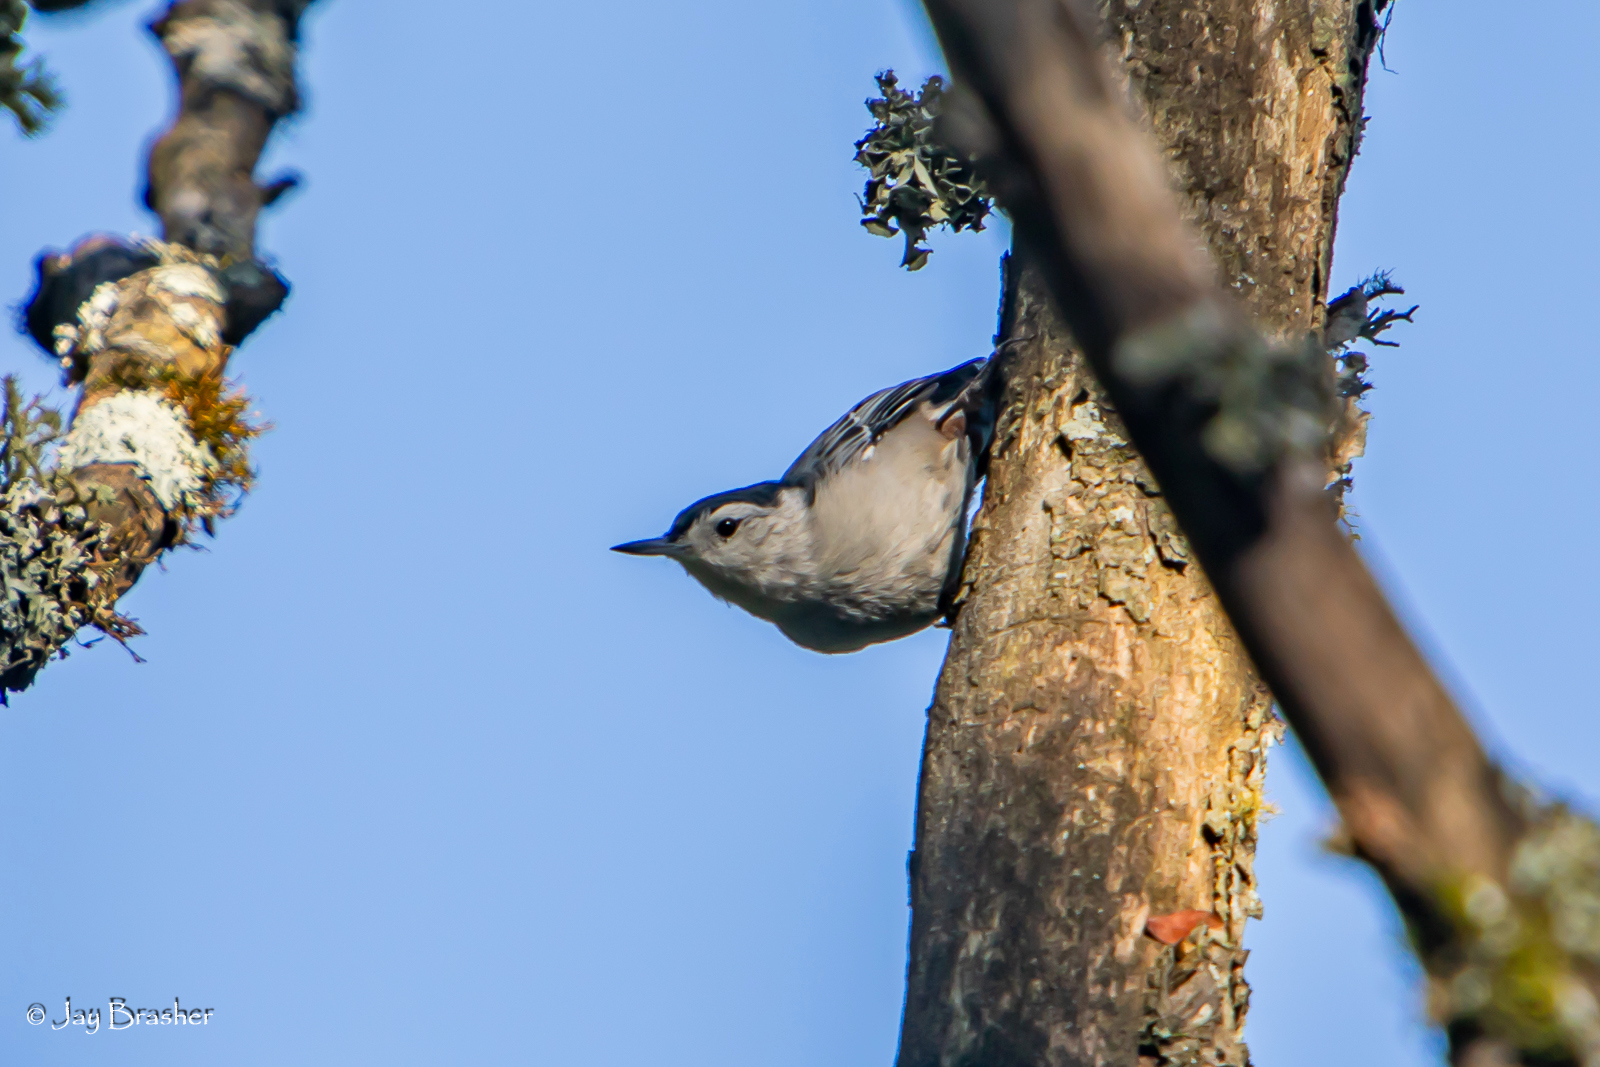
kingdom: Animalia
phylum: Chordata
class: Aves
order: Passeriformes
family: Sittidae
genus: Sitta
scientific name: Sitta carolinensis
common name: White-breasted nuthatch
